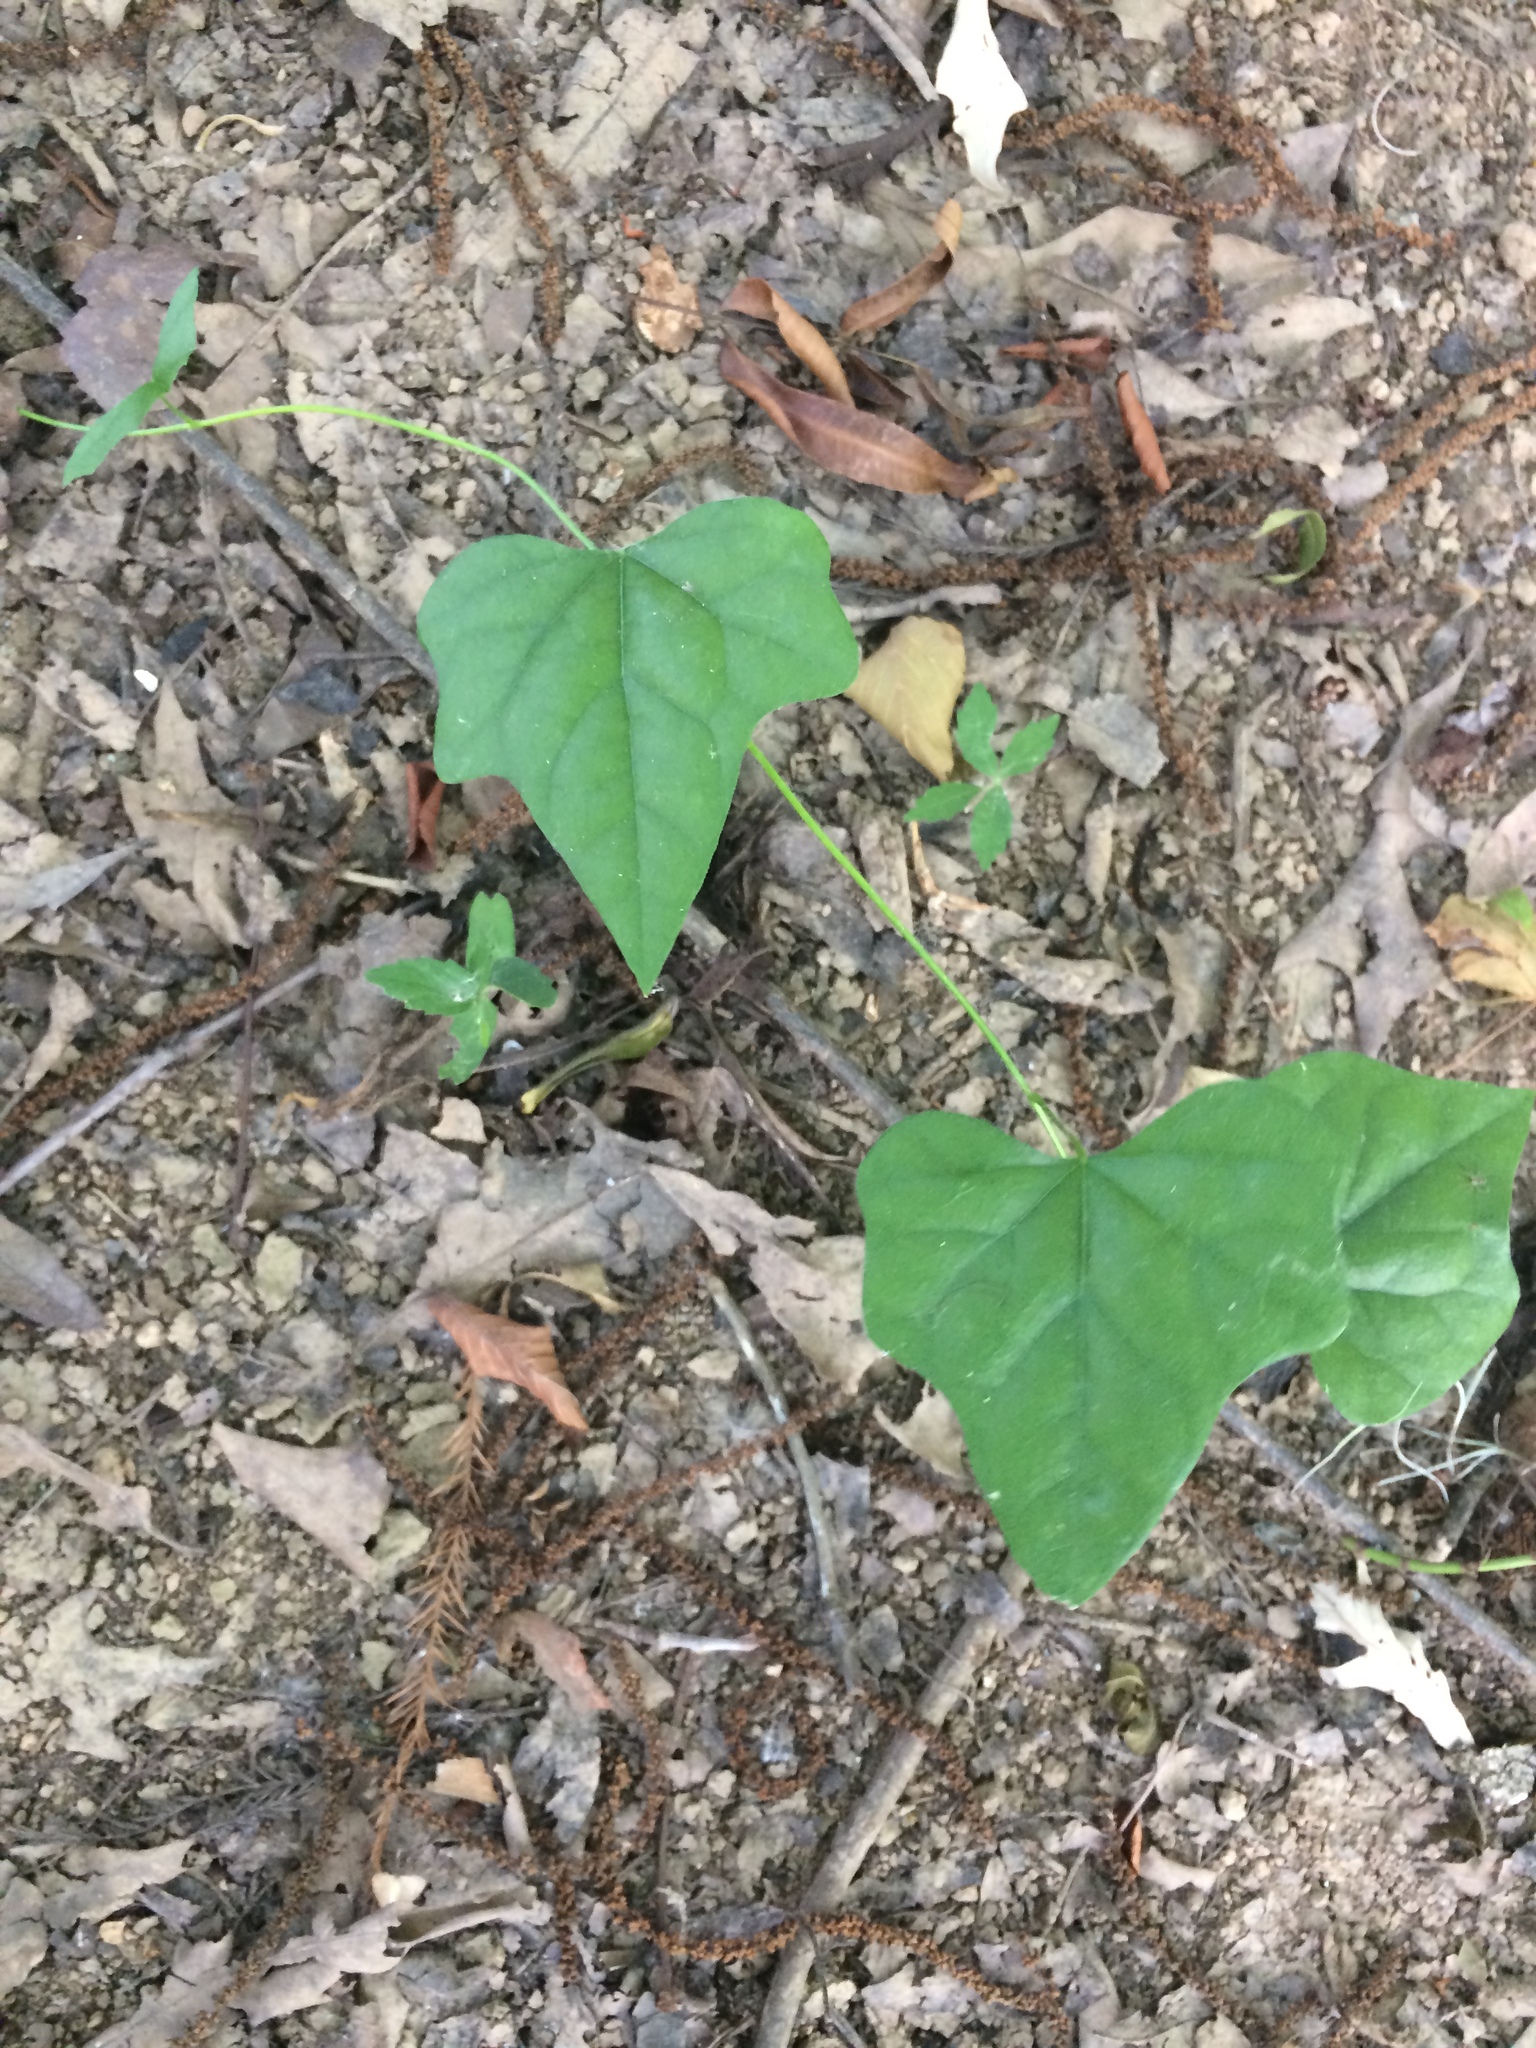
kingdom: Plantae
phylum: Tracheophyta
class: Magnoliopsida
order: Ranunculales
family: Menispermaceae
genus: Cocculus
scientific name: Cocculus carolinus
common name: Carolina moonseed
